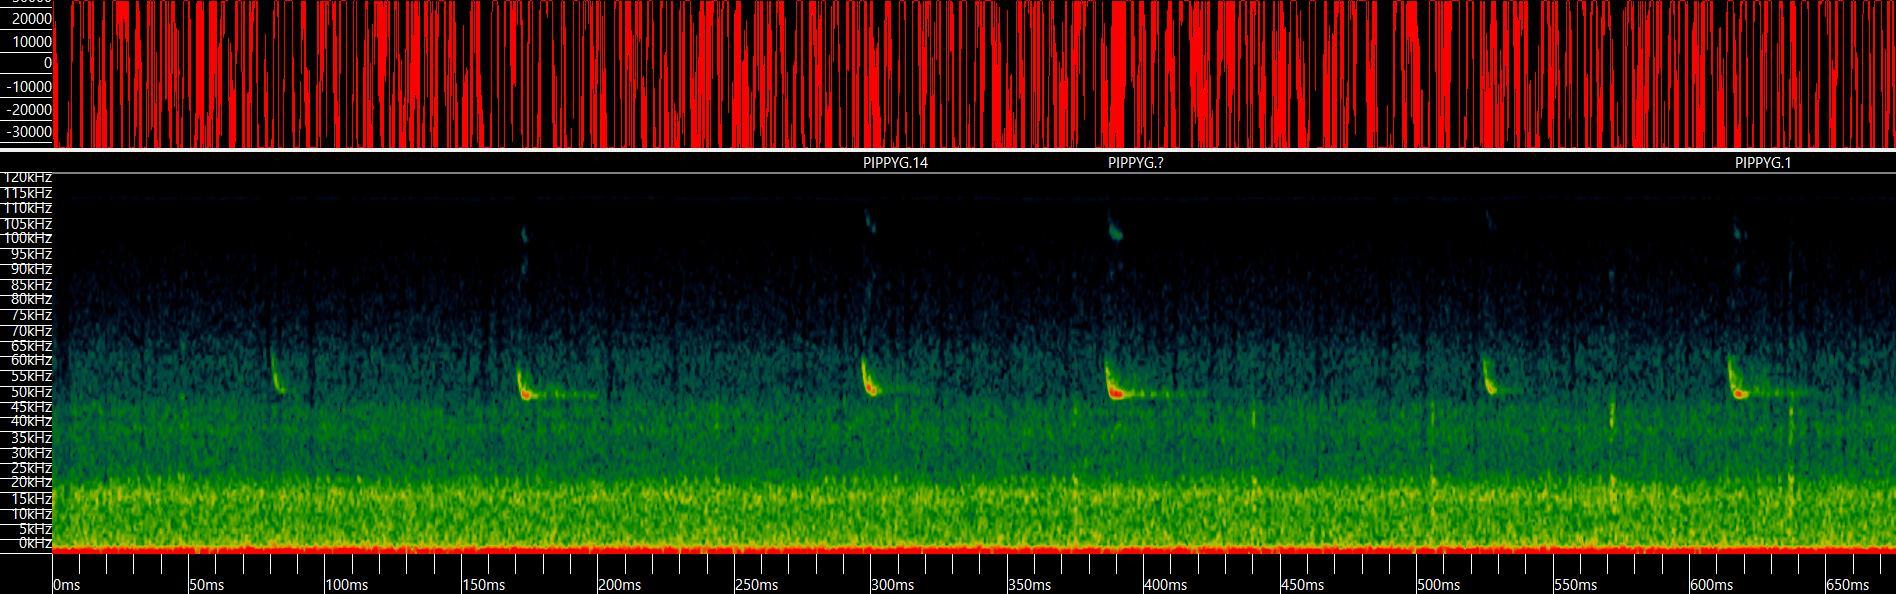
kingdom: Animalia
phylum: Chordata
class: Mammalia
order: Chiroptera
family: Vespertilionidae
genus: Pipistrellus
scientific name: Pipistrellus pygmaeus
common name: Soprano pipistrelle
